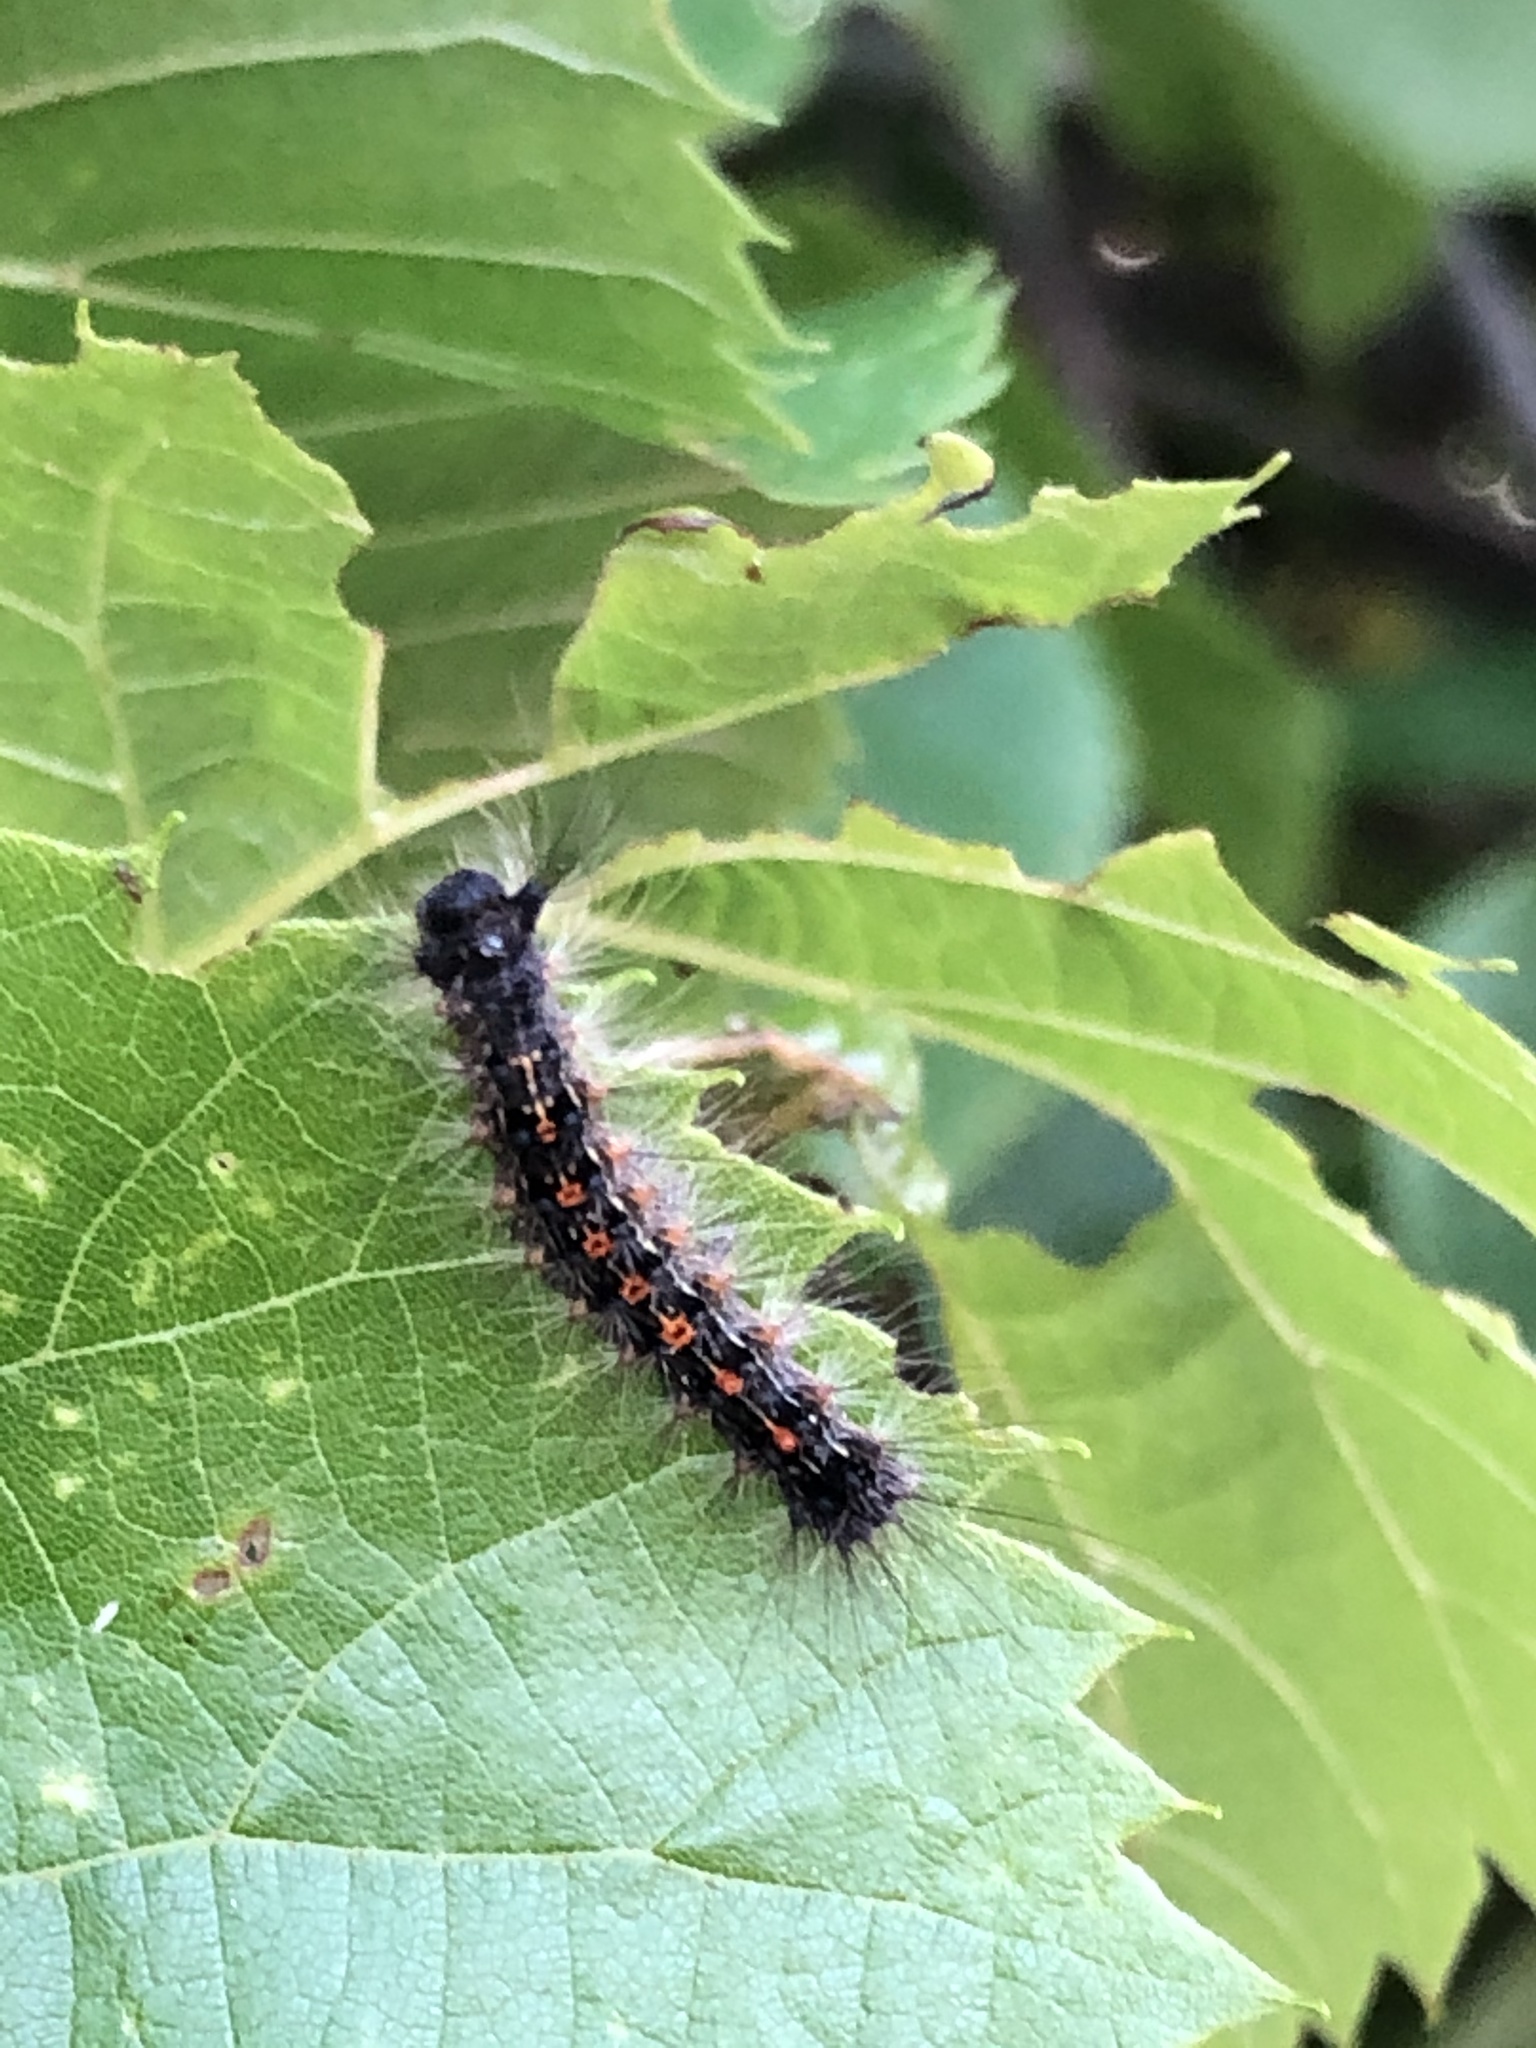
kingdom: Animalia
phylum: Arthropoda
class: Insecta
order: Lepidoptera
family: Erebidae
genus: Lymantria
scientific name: Lymantria dispar
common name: Gypsy moth
